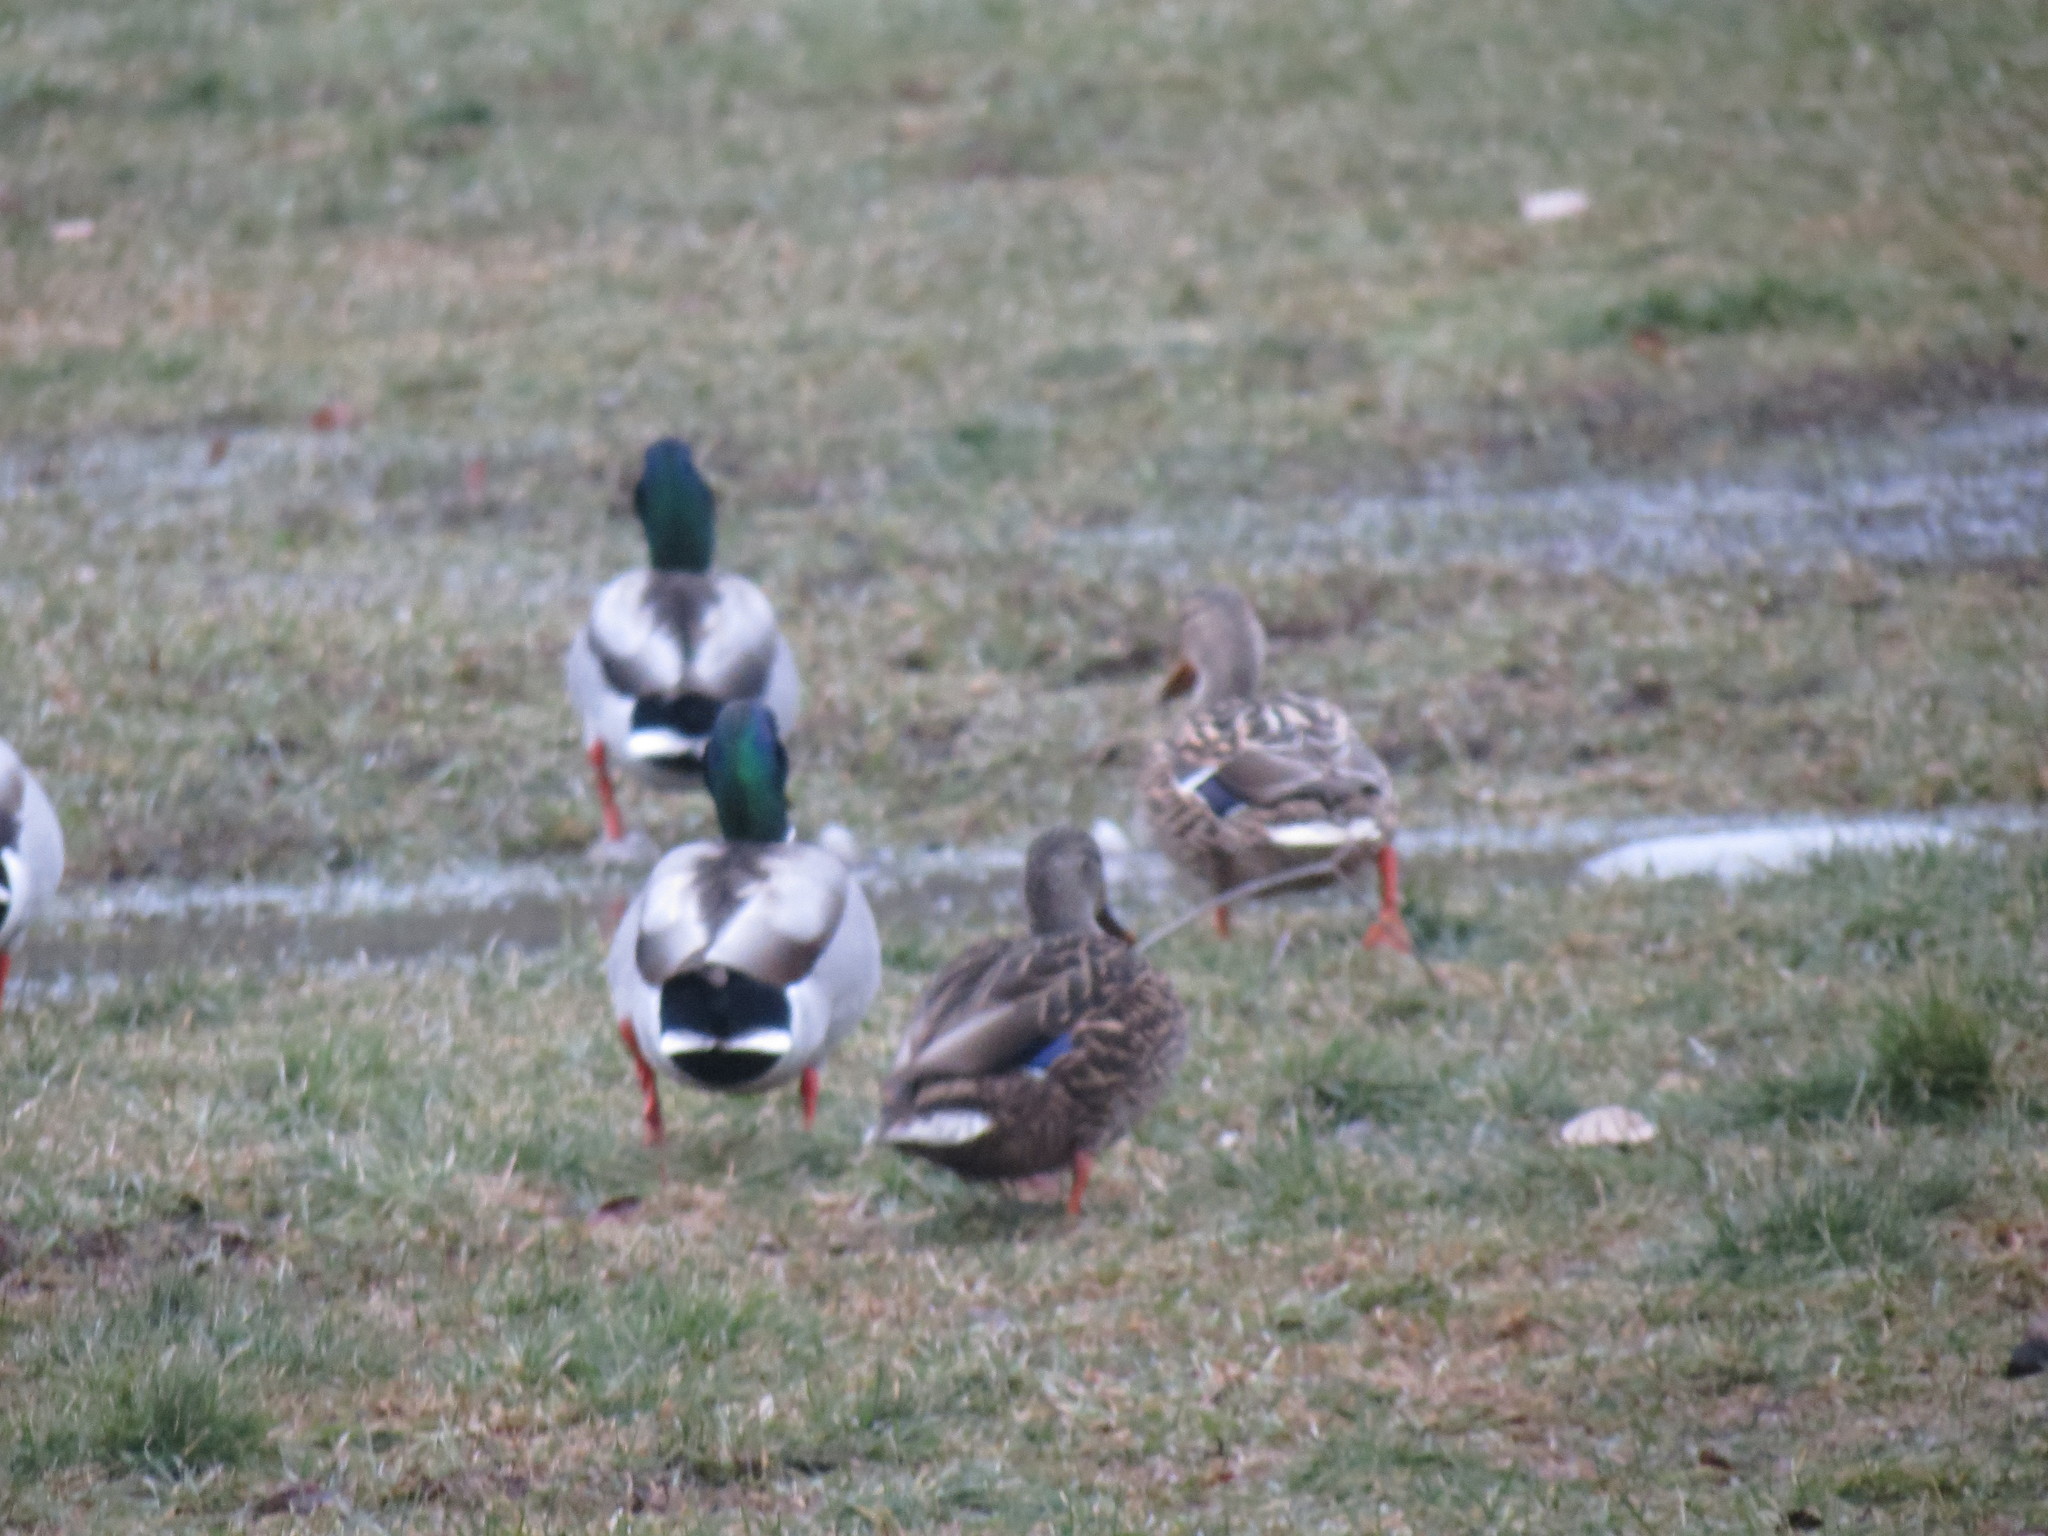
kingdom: Animalia
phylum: Chordata
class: Aves
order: Anseriformes
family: Anatidae
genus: Anas
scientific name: Anas
